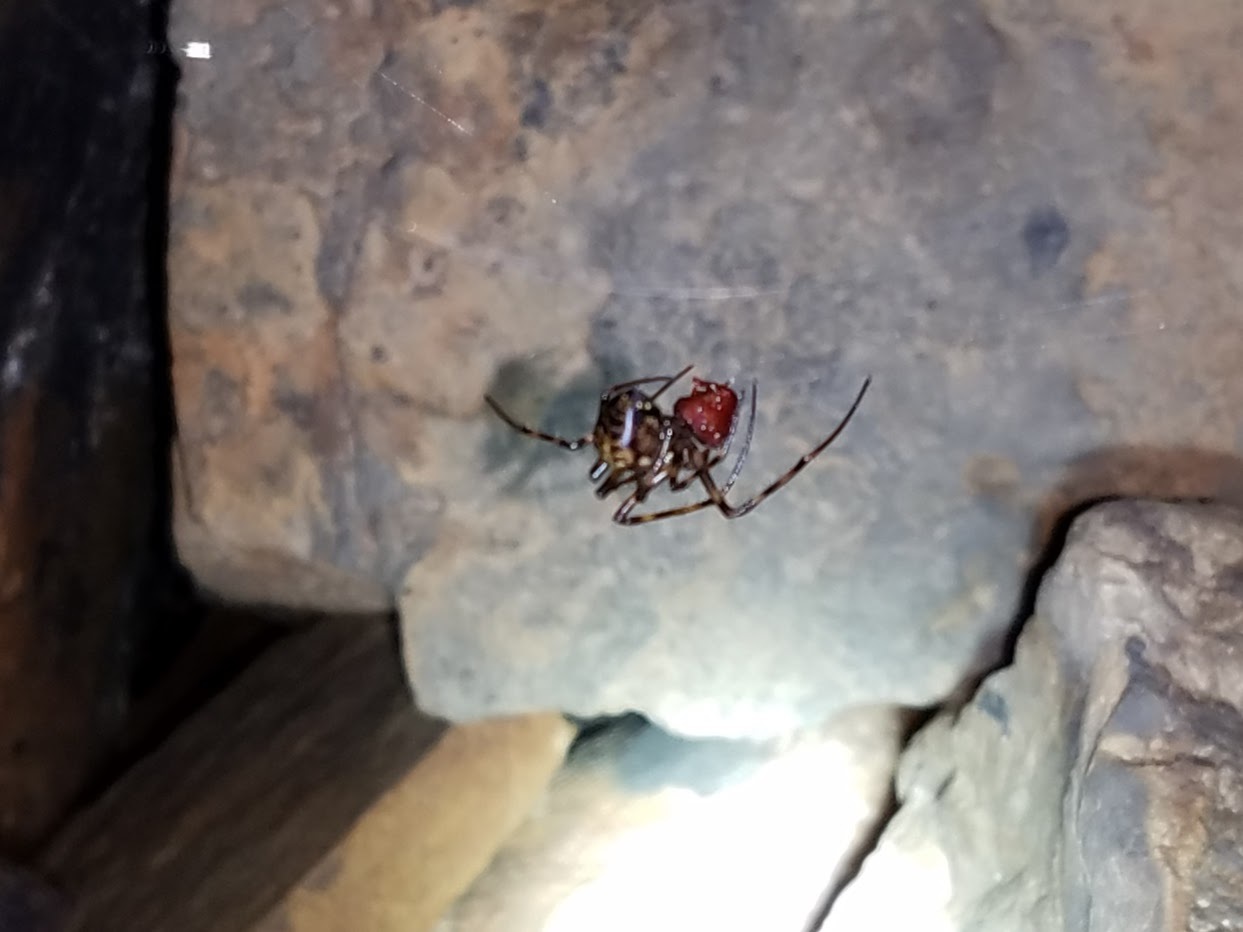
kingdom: Animalia
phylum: Arthropoda
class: Arachnida
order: Araneae
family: Tetragnathidae
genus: Meta
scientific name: Meta ovalis
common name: Eastern cave long-jawed spider
